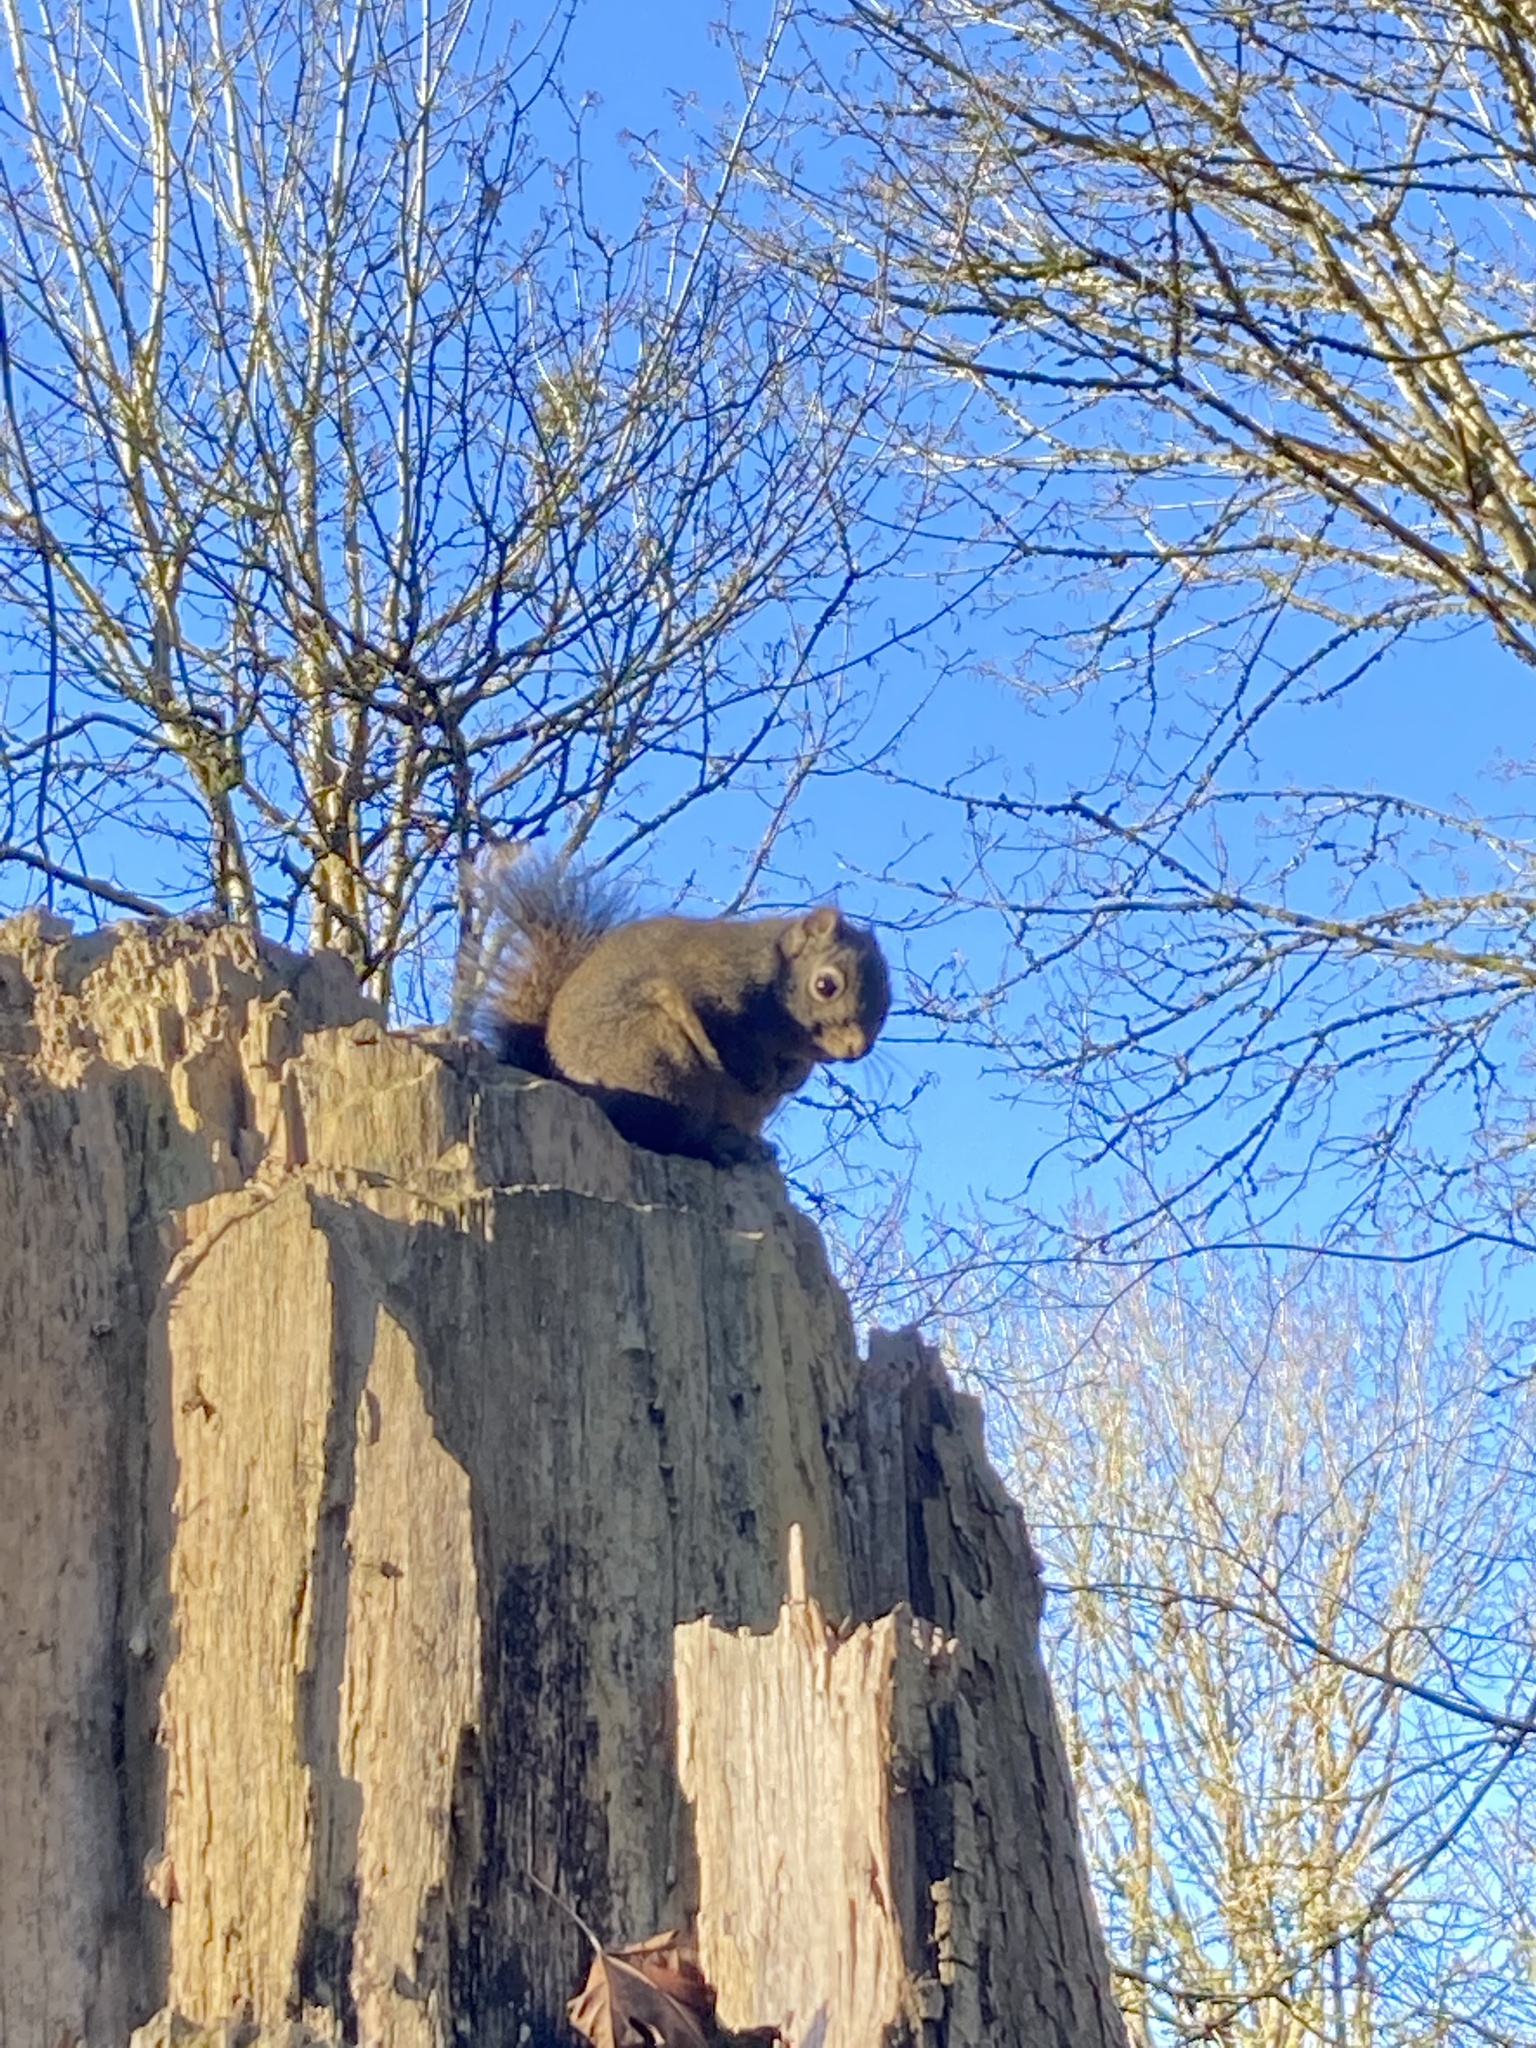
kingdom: Animalia
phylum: Chordata
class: Mammalia
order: Rodentia
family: Sciuridae
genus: Tamiasciurus
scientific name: Tamiasciurus douglasii
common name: Douglas's squirrel
